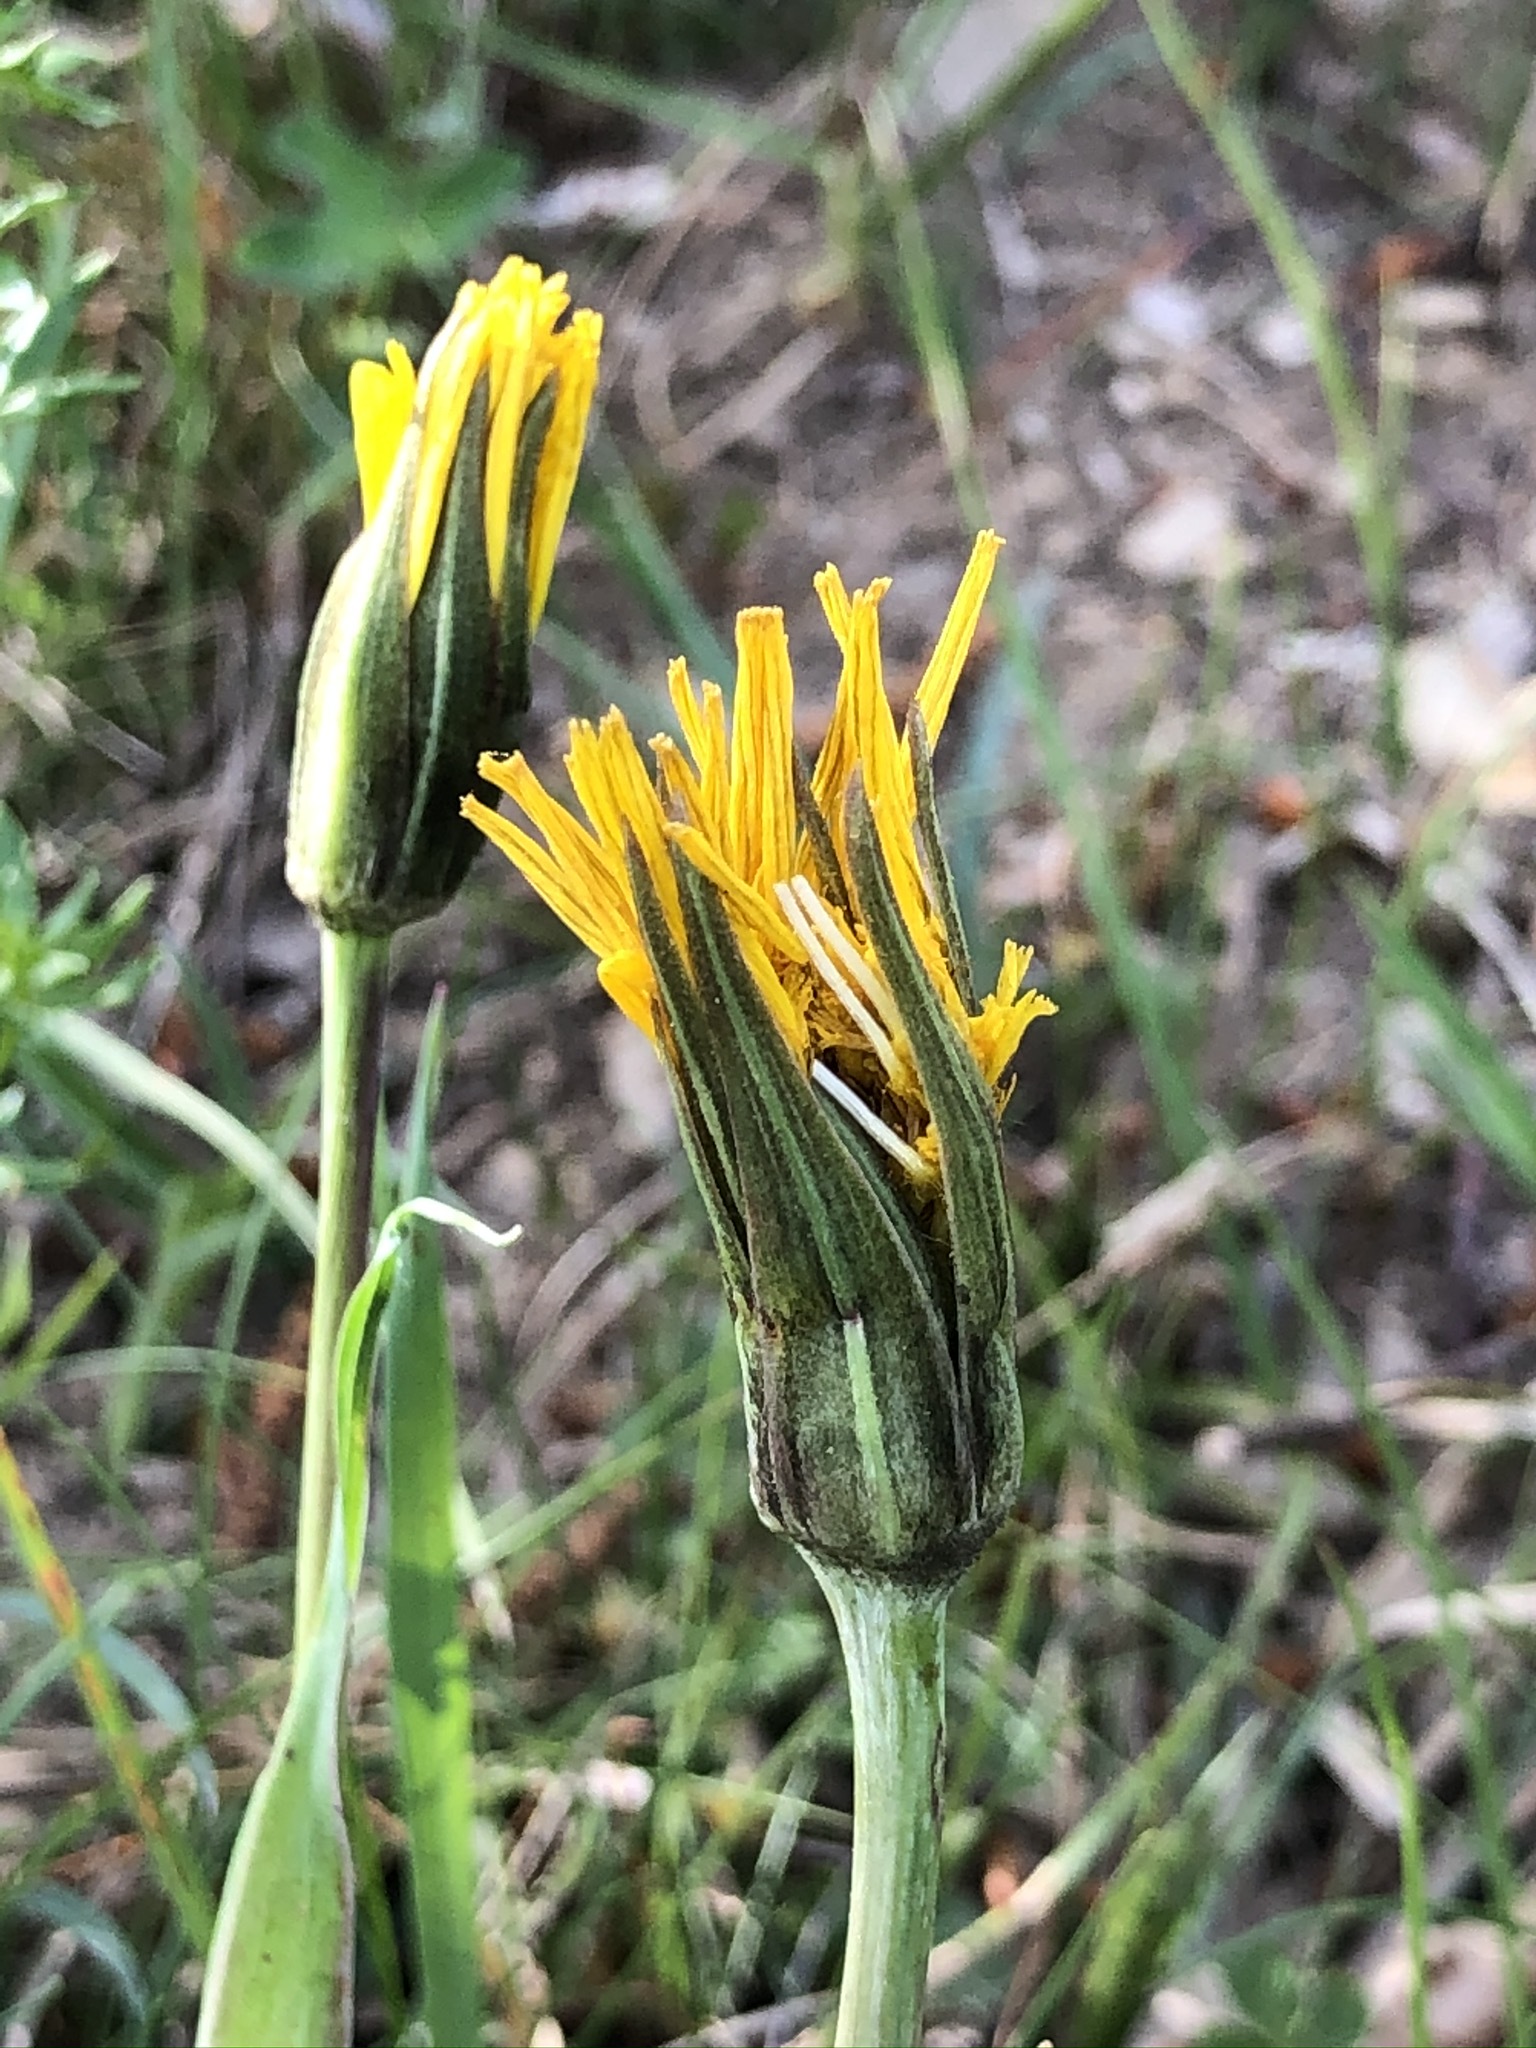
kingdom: Plantae
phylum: Tracheophyta
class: Magnoliopsida
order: Asterales
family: Asteraceae
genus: Tragopogon
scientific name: Tragopogon orientalis
